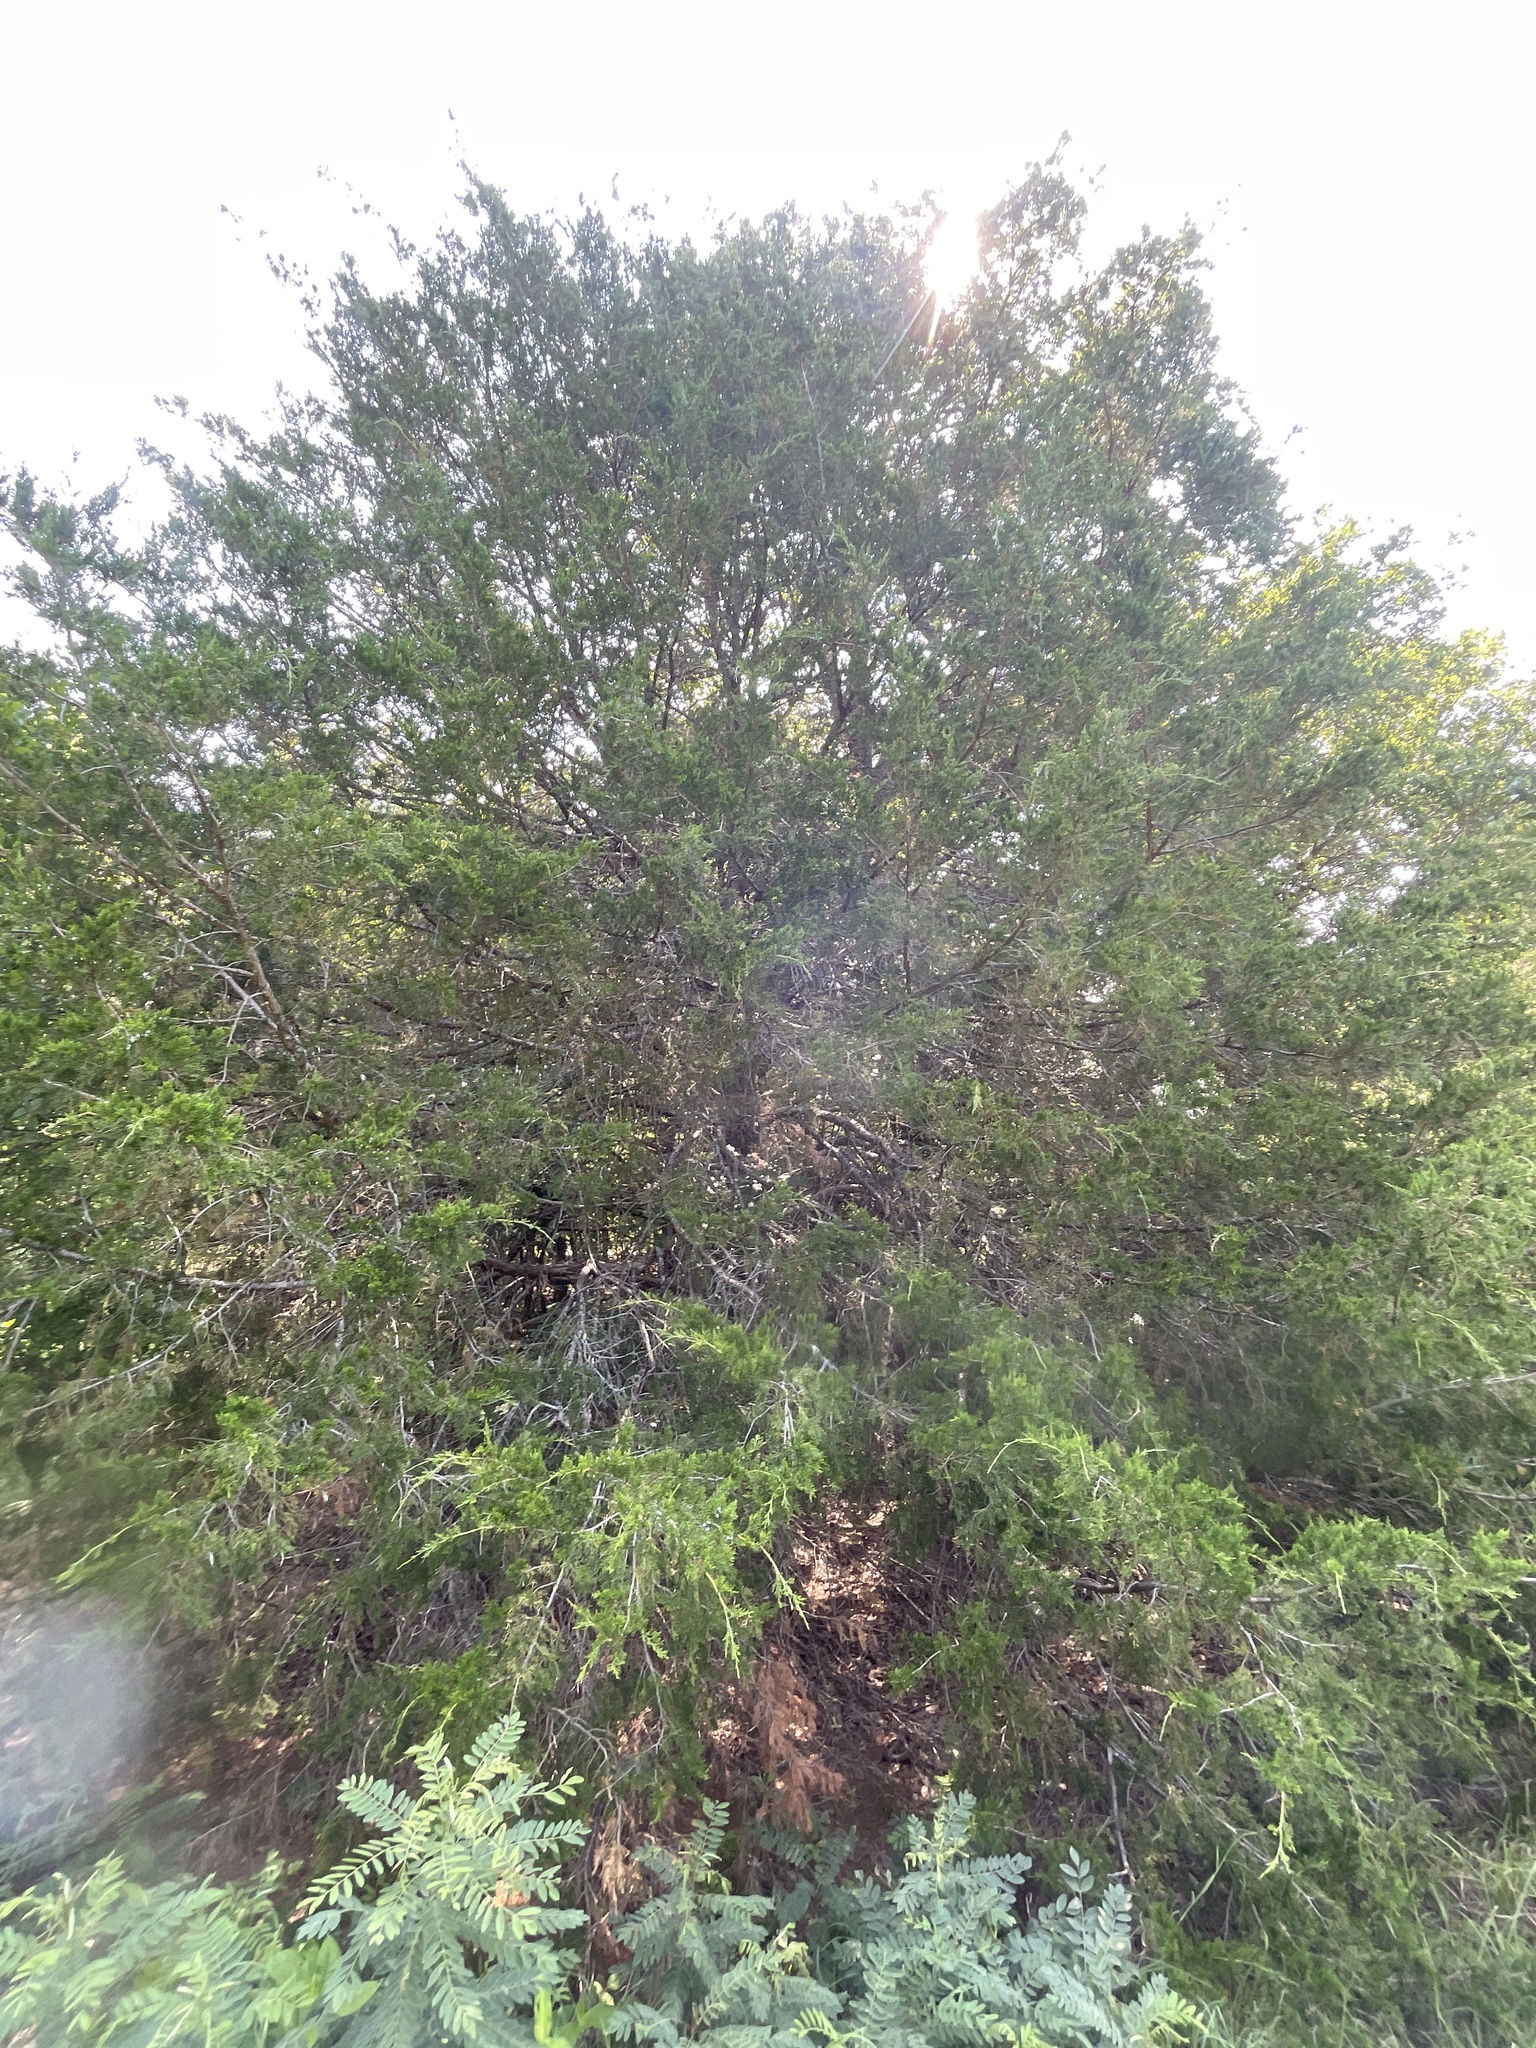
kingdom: Plantae
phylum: Tracheophyta
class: Pinopsida
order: Pinales
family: Cupressaceae
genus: Juniperus
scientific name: Juniperus virginiana
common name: Red juniper
